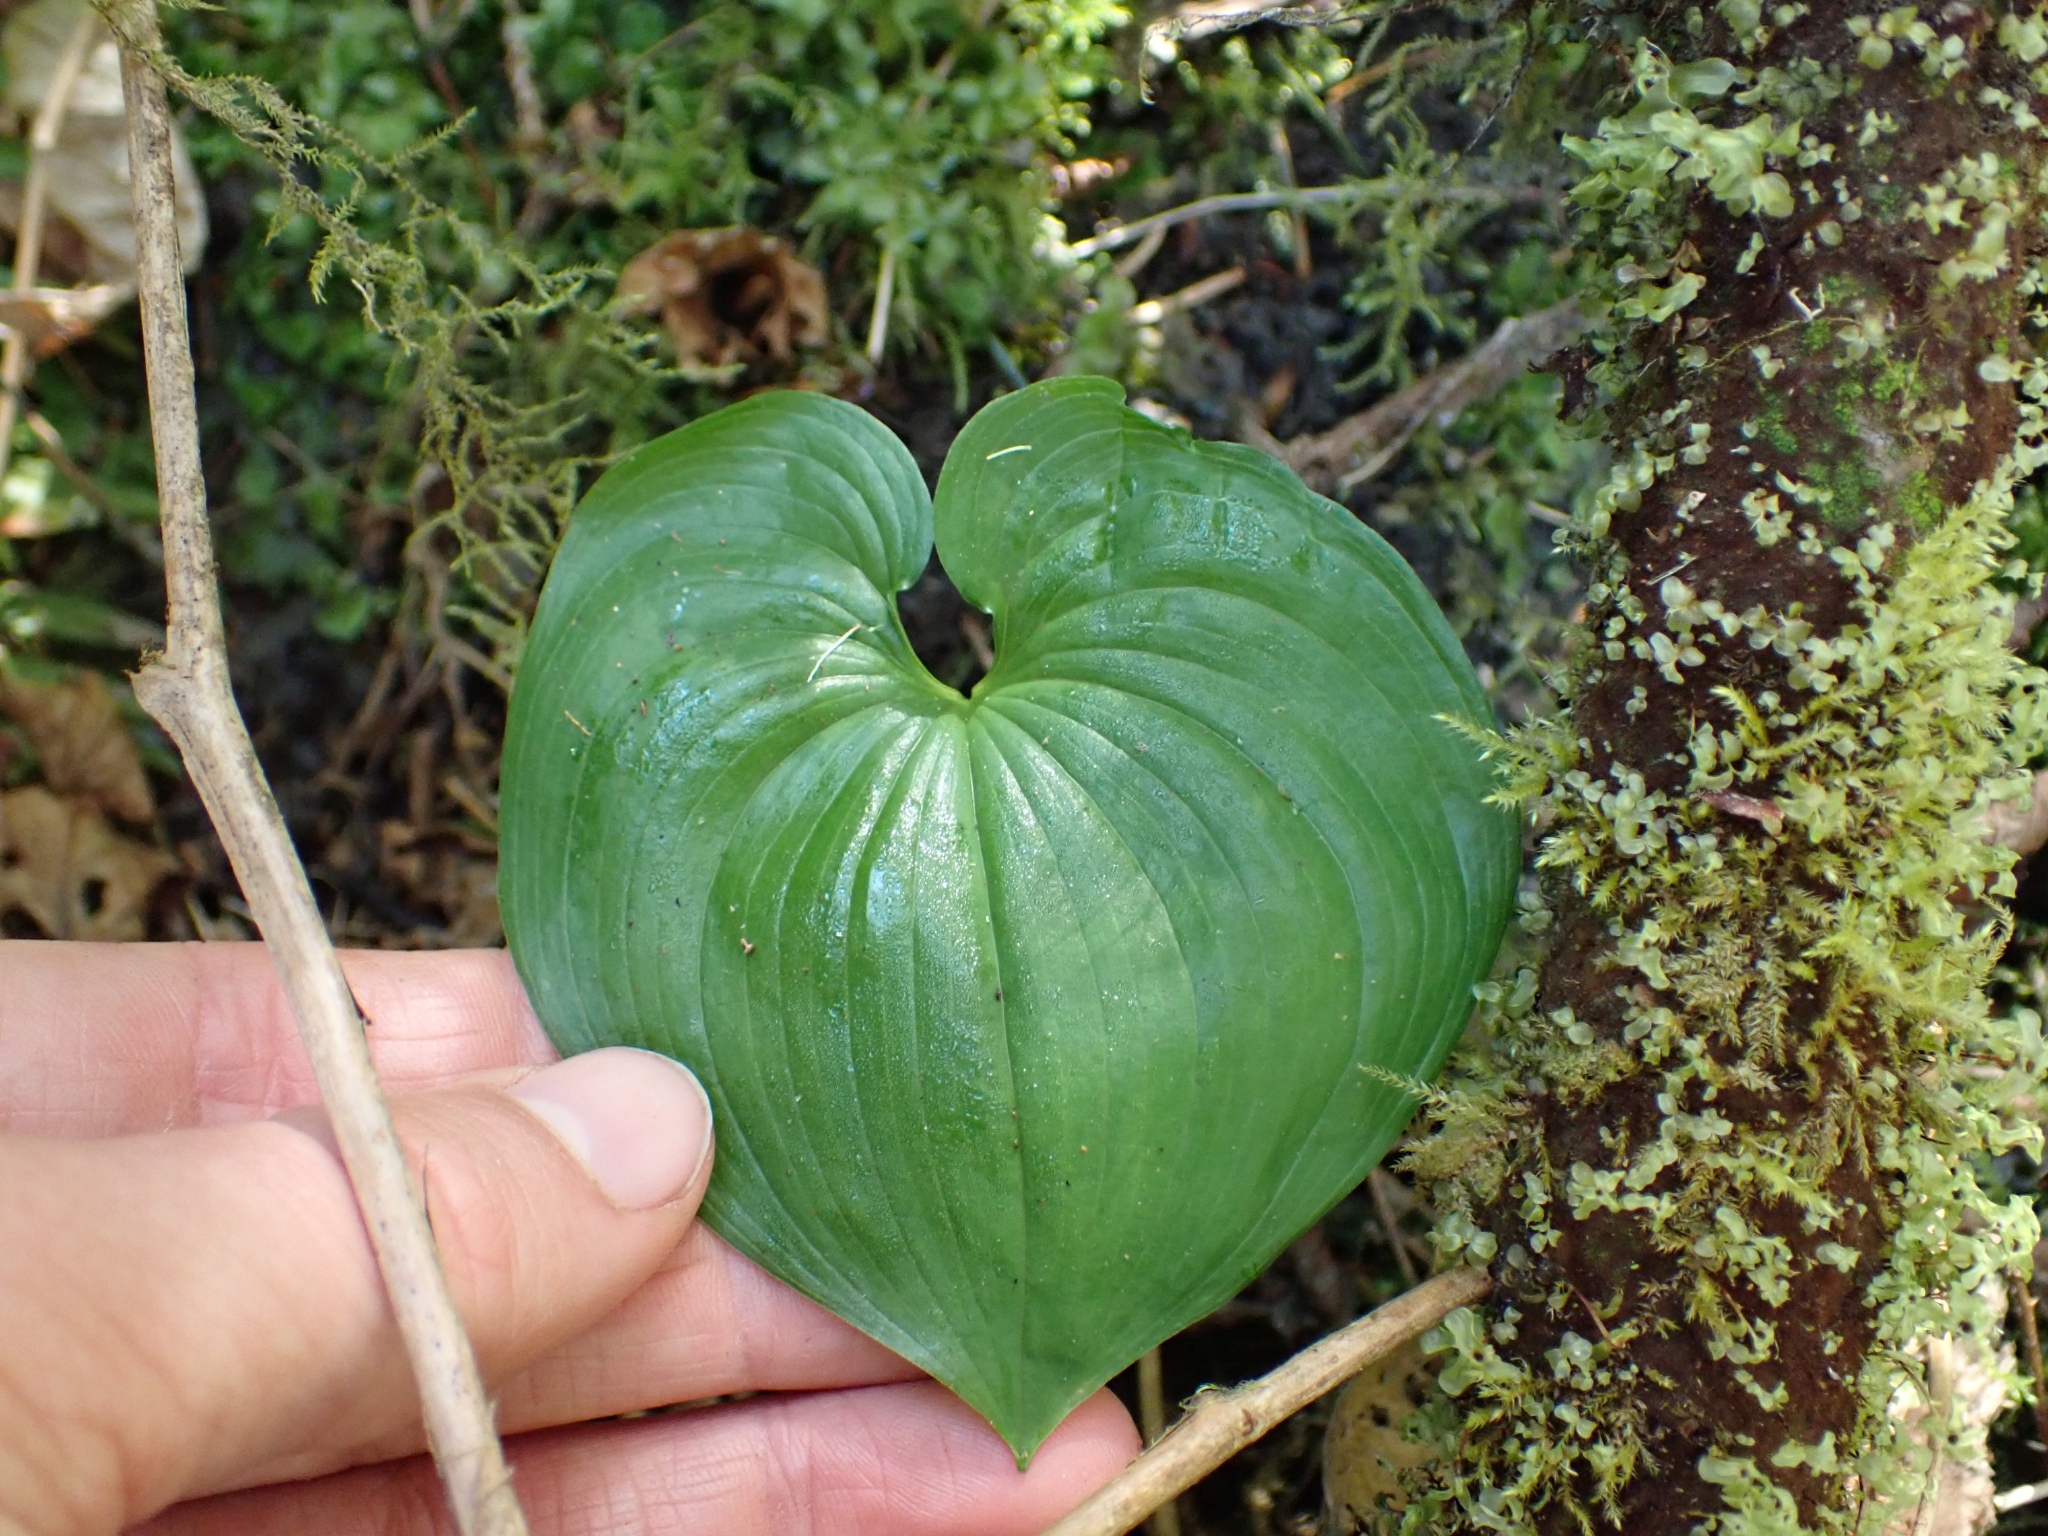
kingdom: Plantae
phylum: Tracheophyta
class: Liliopsida
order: Asparagales
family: Asparagaceae
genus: Maianthemum
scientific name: Maianthemum dilatatum
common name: False lily-of-the-valley
